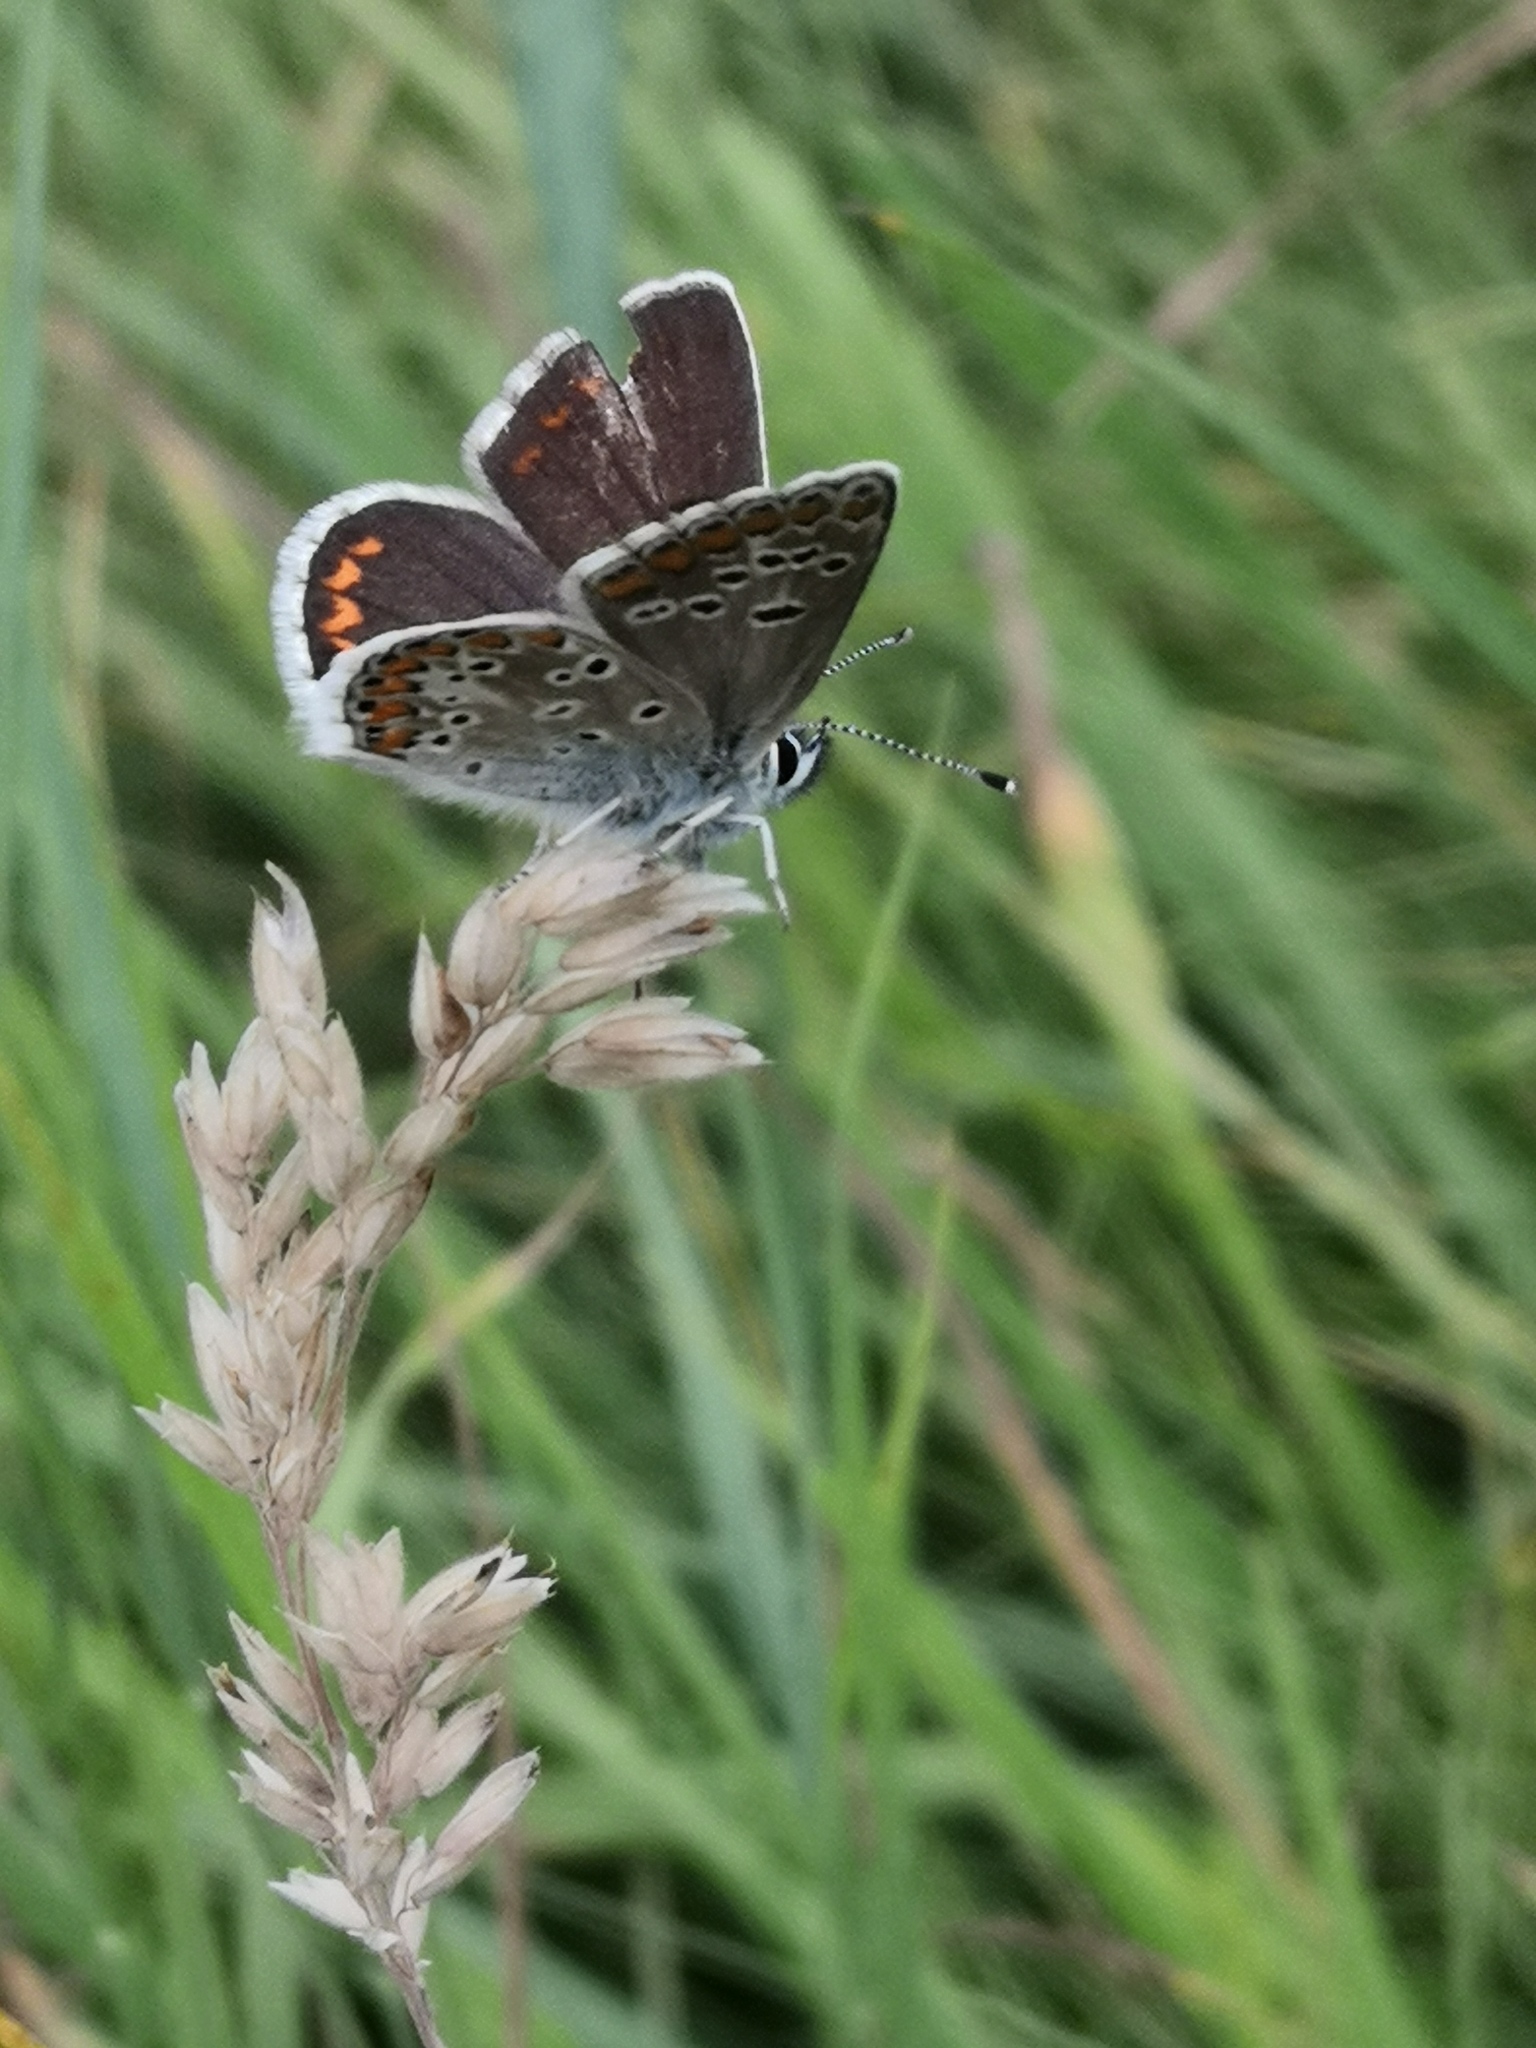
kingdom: Animalia
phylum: Arthropoda
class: Insecta
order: Lepidoptera
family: Lycaenidae
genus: Aricia
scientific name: Aricia agestis
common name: Brown argus
